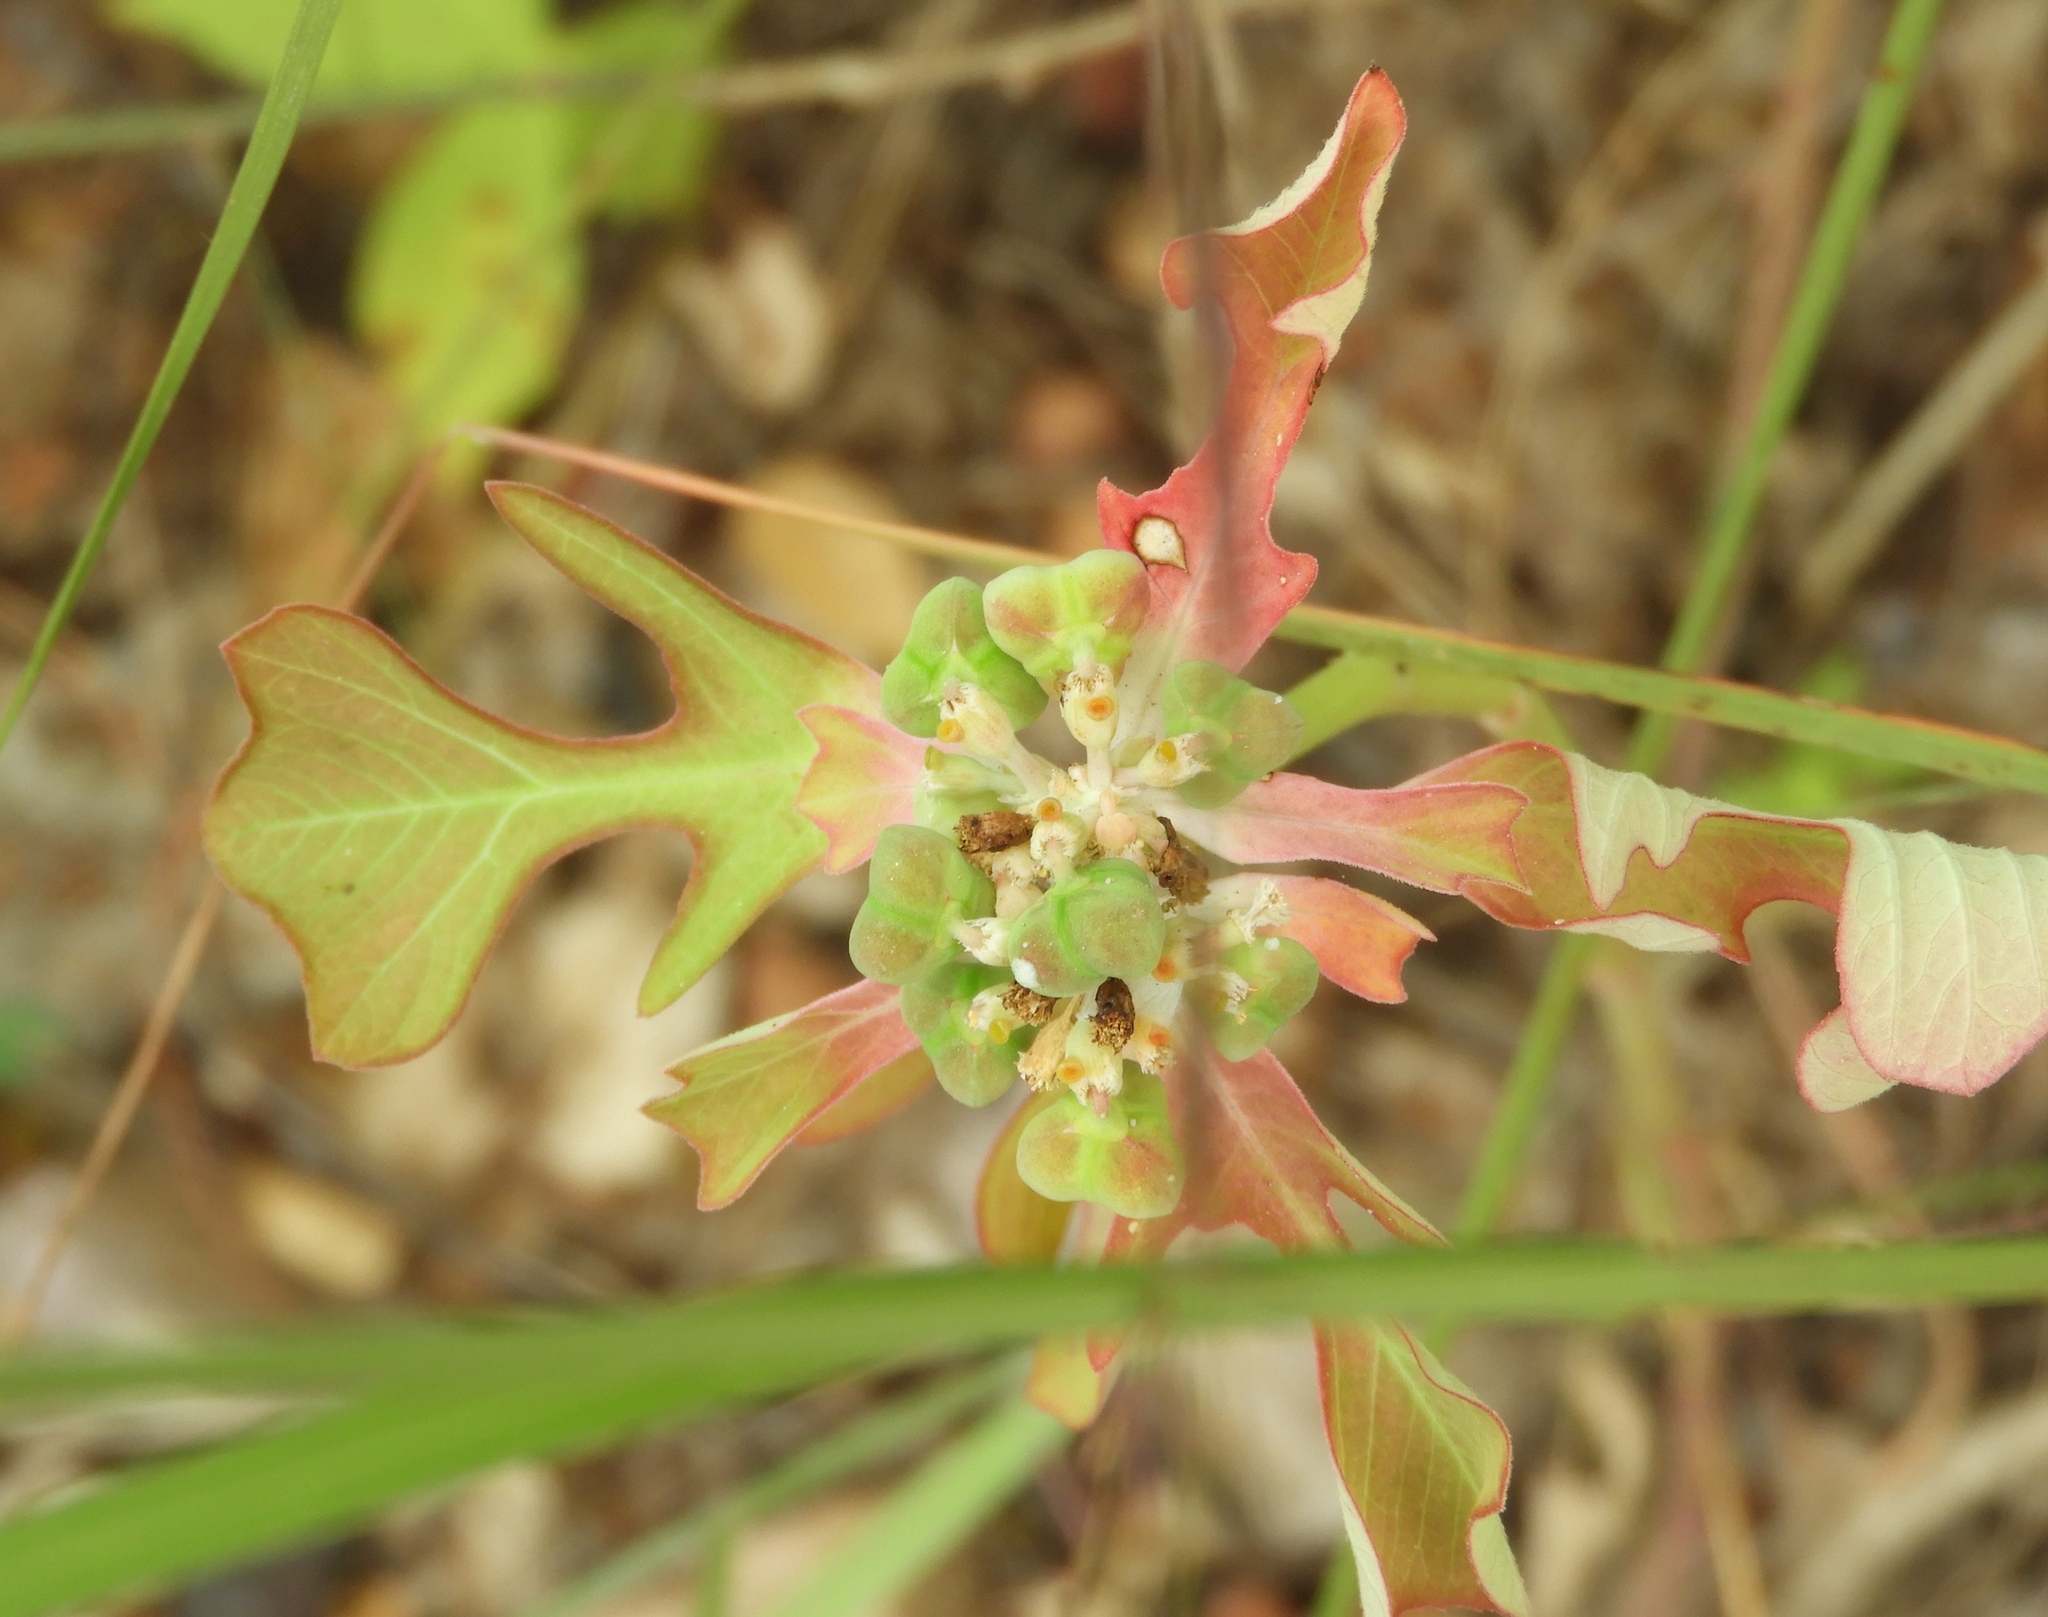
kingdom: Plantae
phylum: Tracheophyta
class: Magnoliopsida
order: Malpighiales
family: Euphorbiaceae
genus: Euphorbia
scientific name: Euphorbia heterophylla
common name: Mexican fireplant
